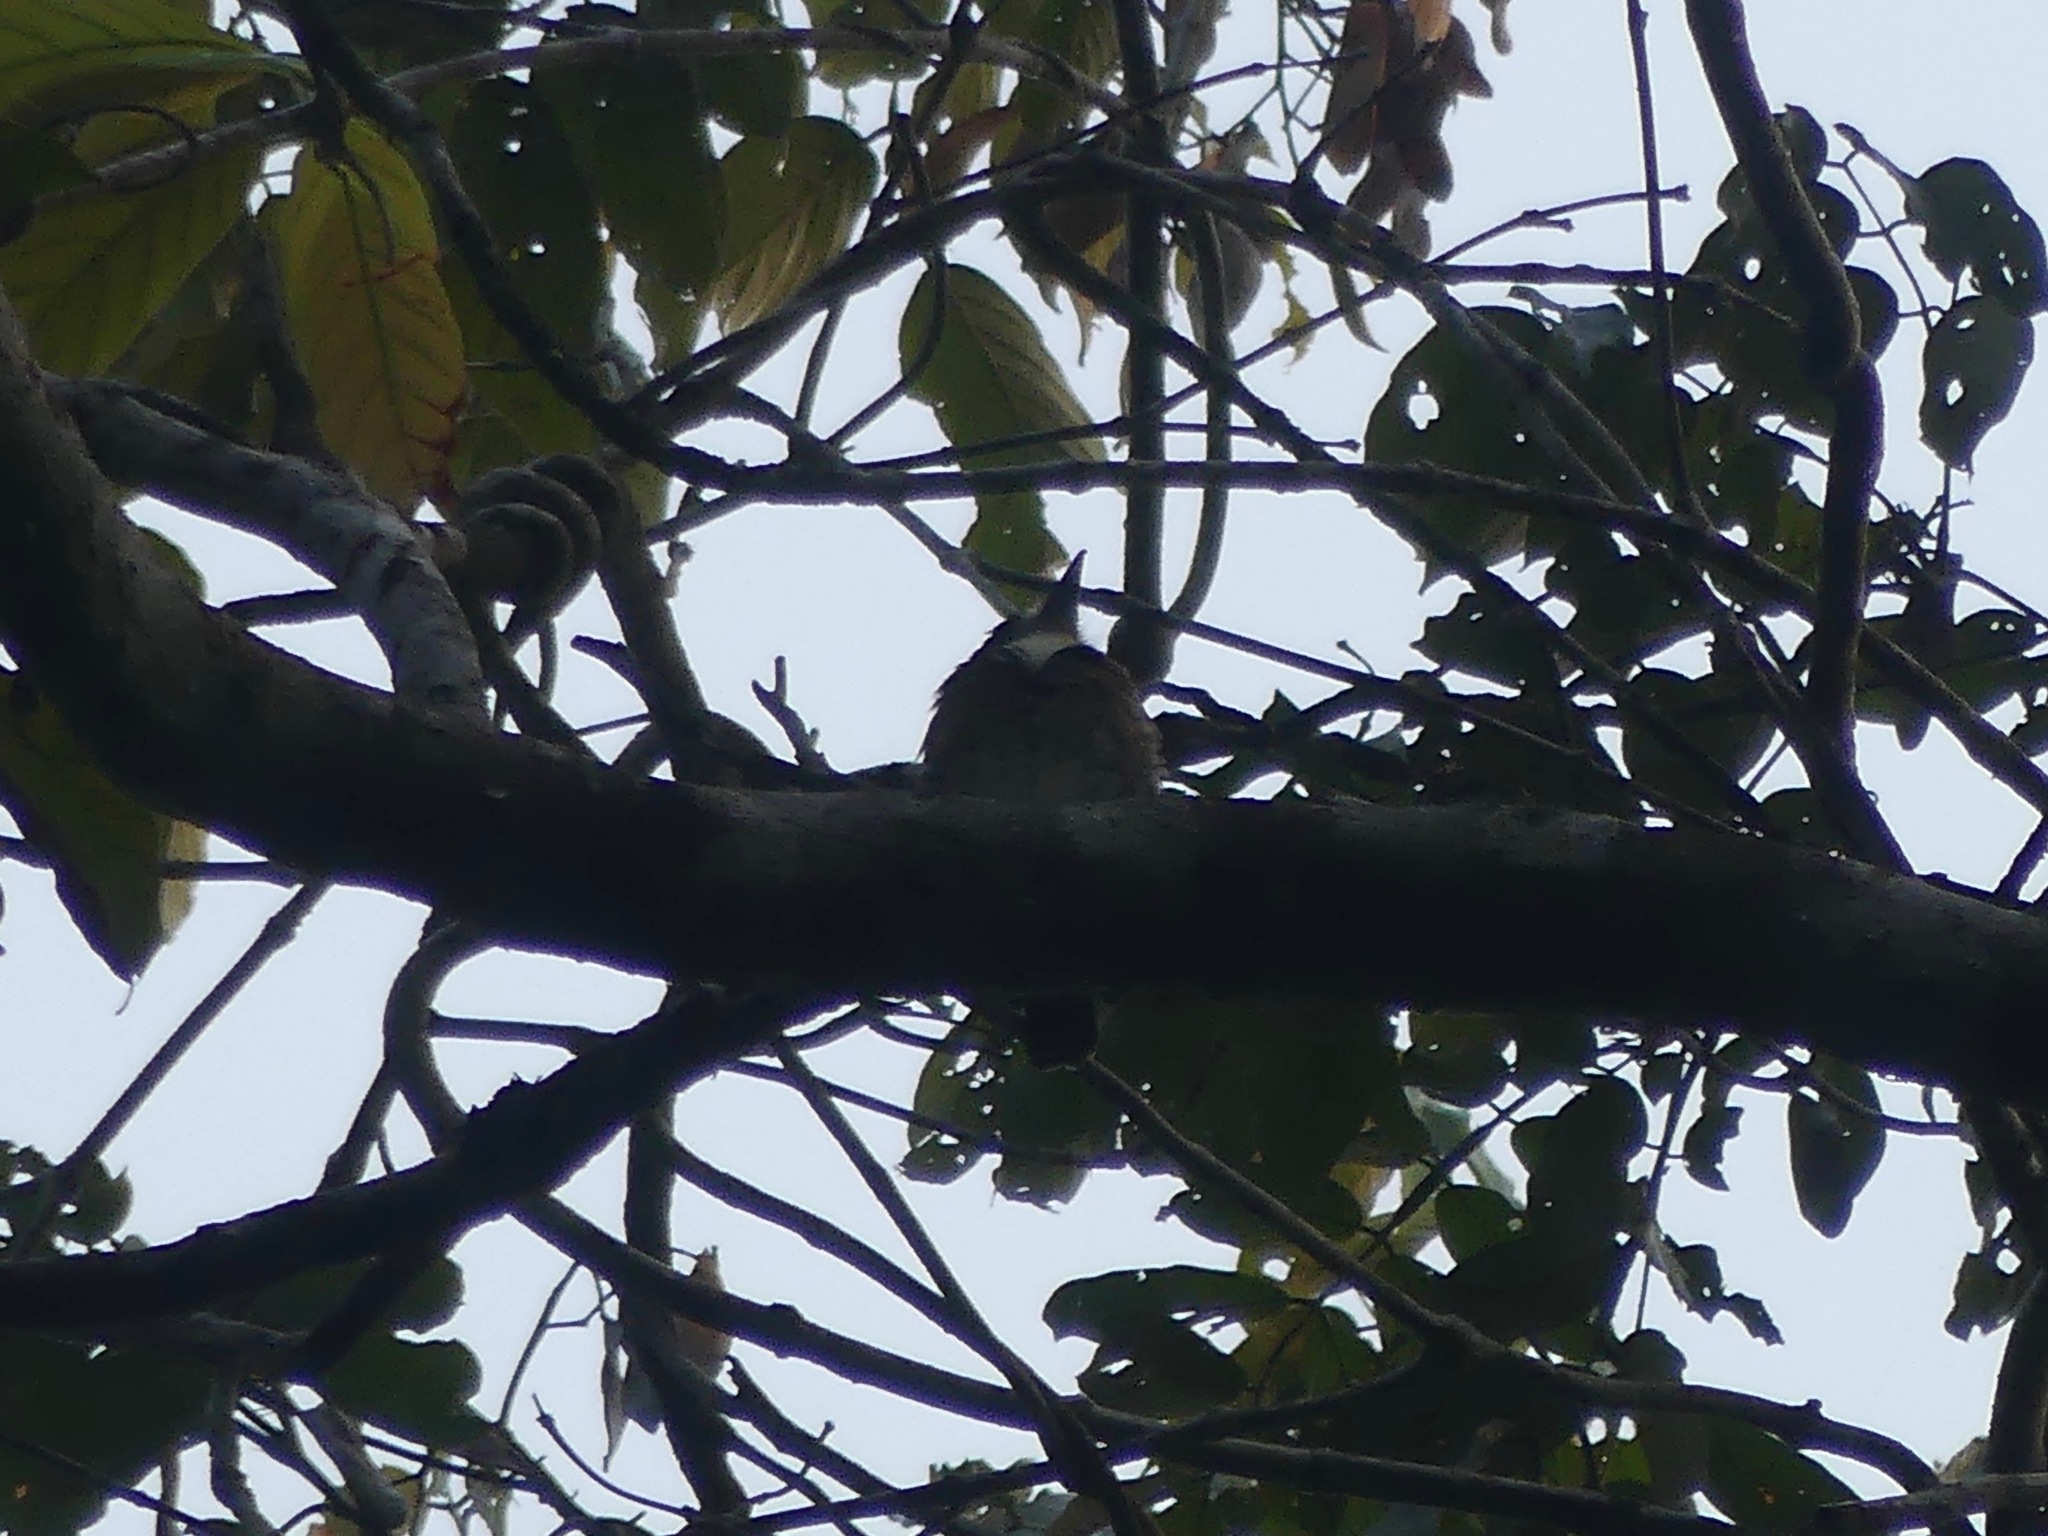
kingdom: Animalia
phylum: Chordata
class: Aves
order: Piciformes
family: Bucconidae
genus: Notharchus
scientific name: Notharchus ordii
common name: Brown-banded puffbird
